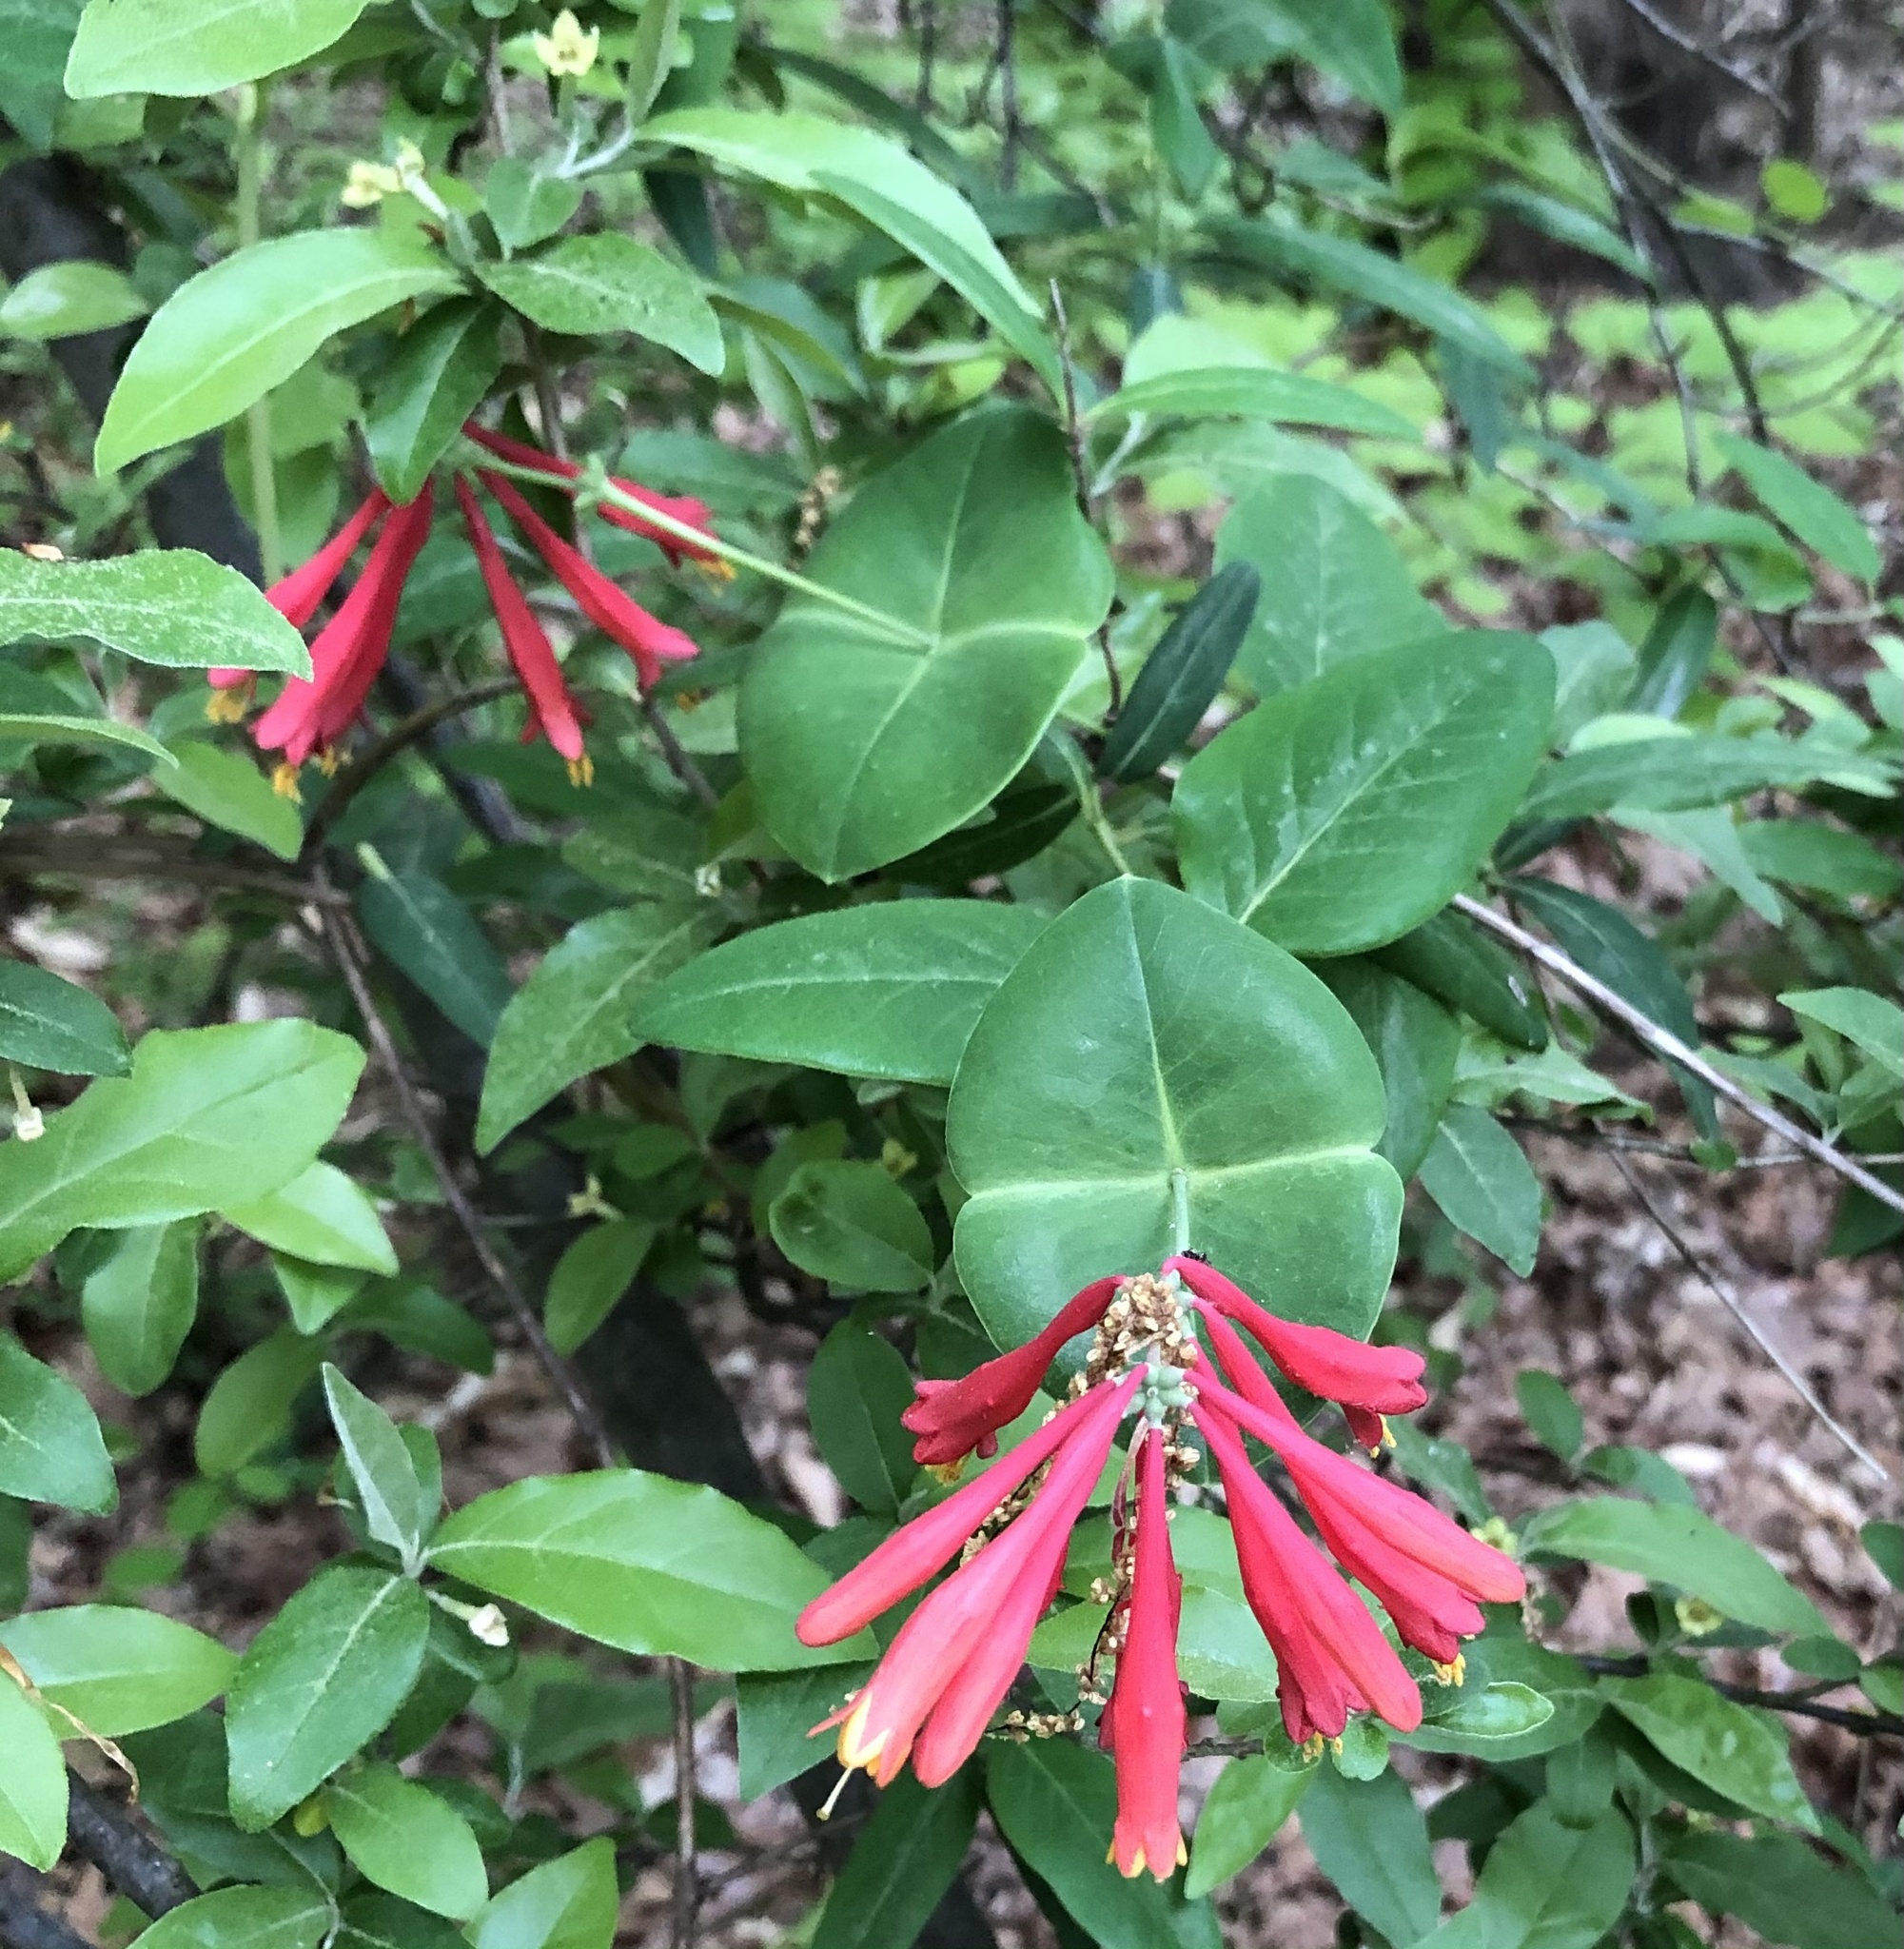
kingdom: Plantae
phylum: Tracheophyta
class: Magnoliopsida
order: Dipsacales
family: Caprifoliaceae
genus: Lonicera
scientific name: Lonicera sempervirens
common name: Coral honeysuckle
